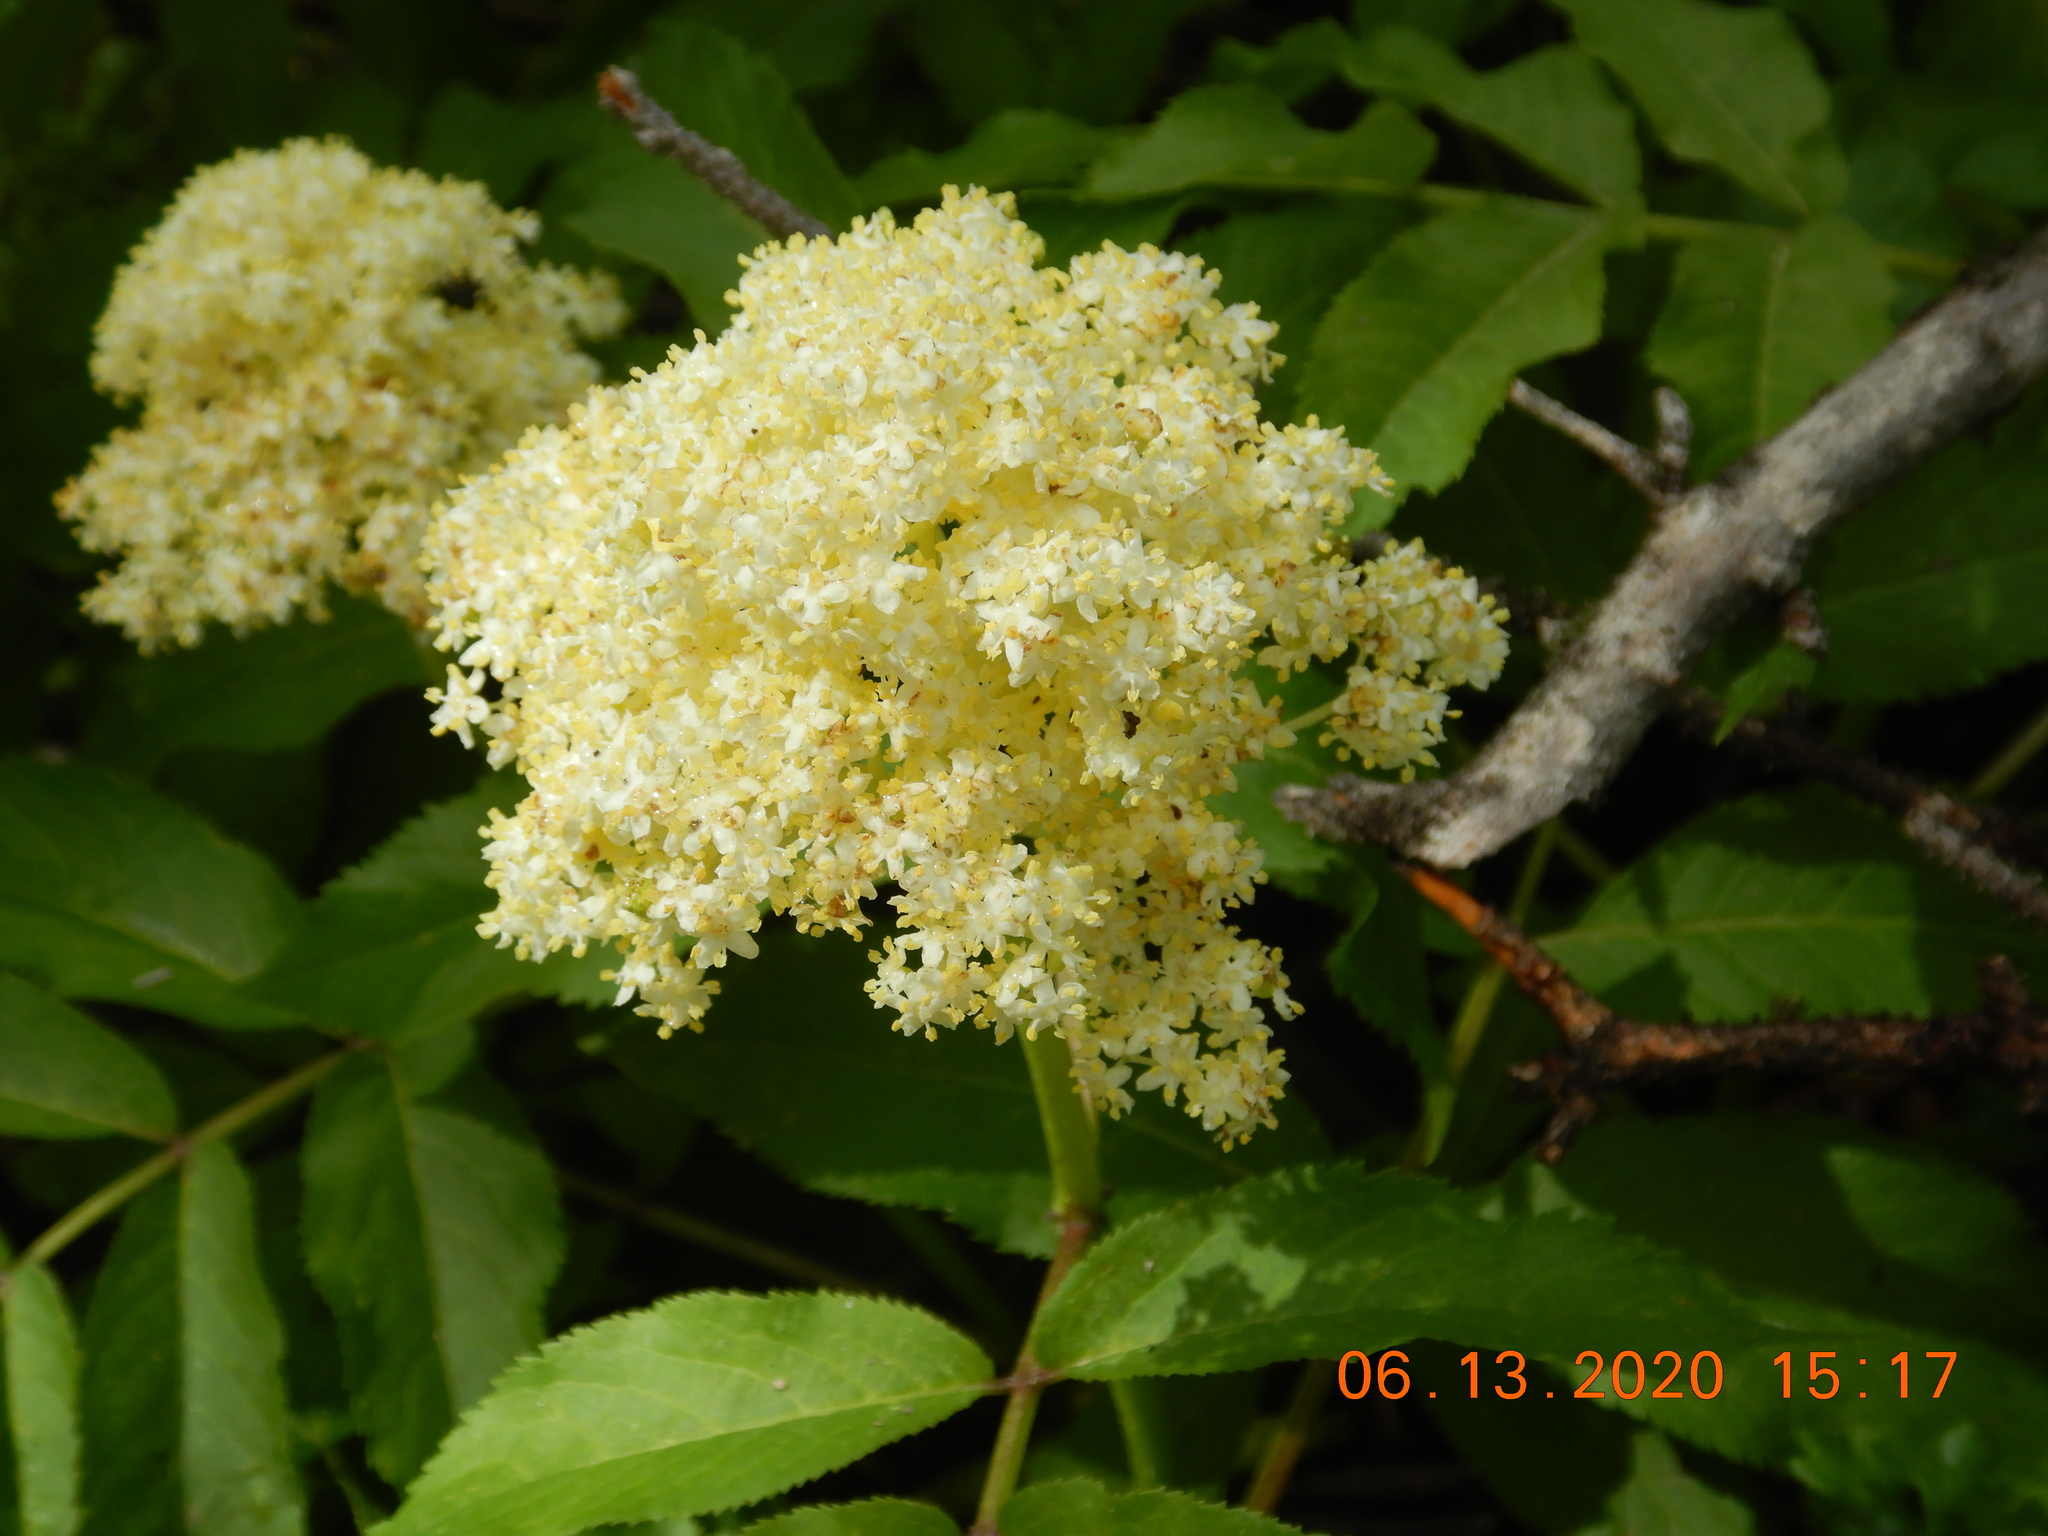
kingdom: Plantae
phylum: Tracheophyta
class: Magnoliopsida
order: Dipsacales
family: Viburnaceae
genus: Sambucus
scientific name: Sambucus racemosa
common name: Red-berried elder
